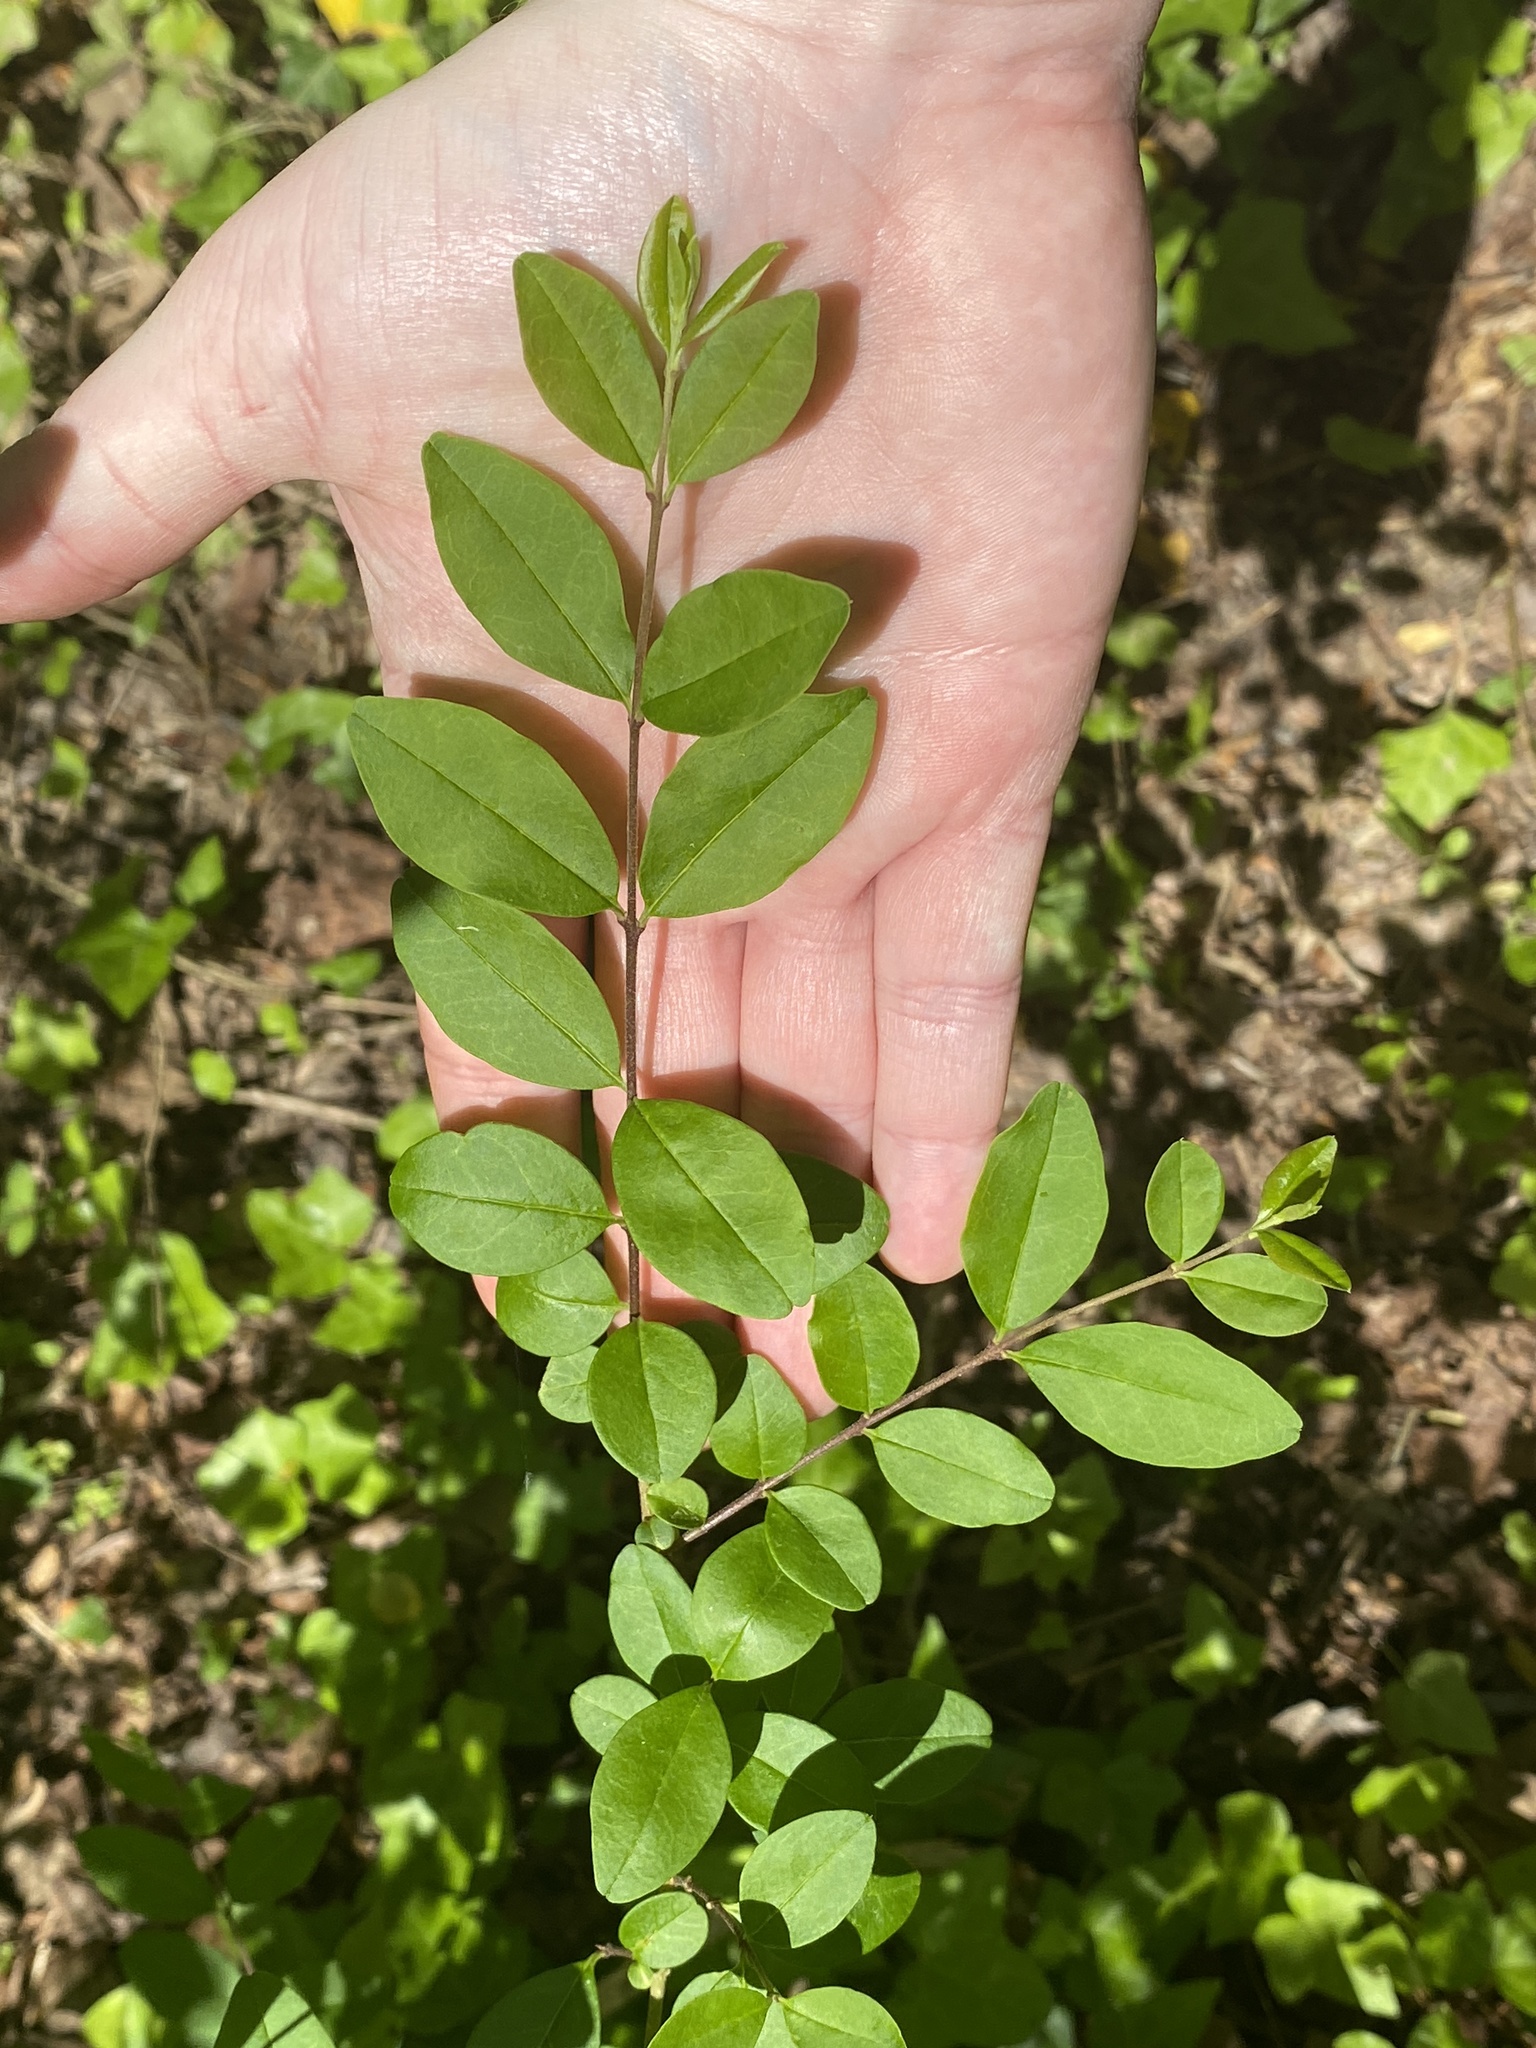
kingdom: Plantae
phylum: Tracheophyta
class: Magnoliopsida
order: Lamiales
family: Oleaceae
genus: Ligustrum
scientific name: Ligustrum sinense
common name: Chinese privet
